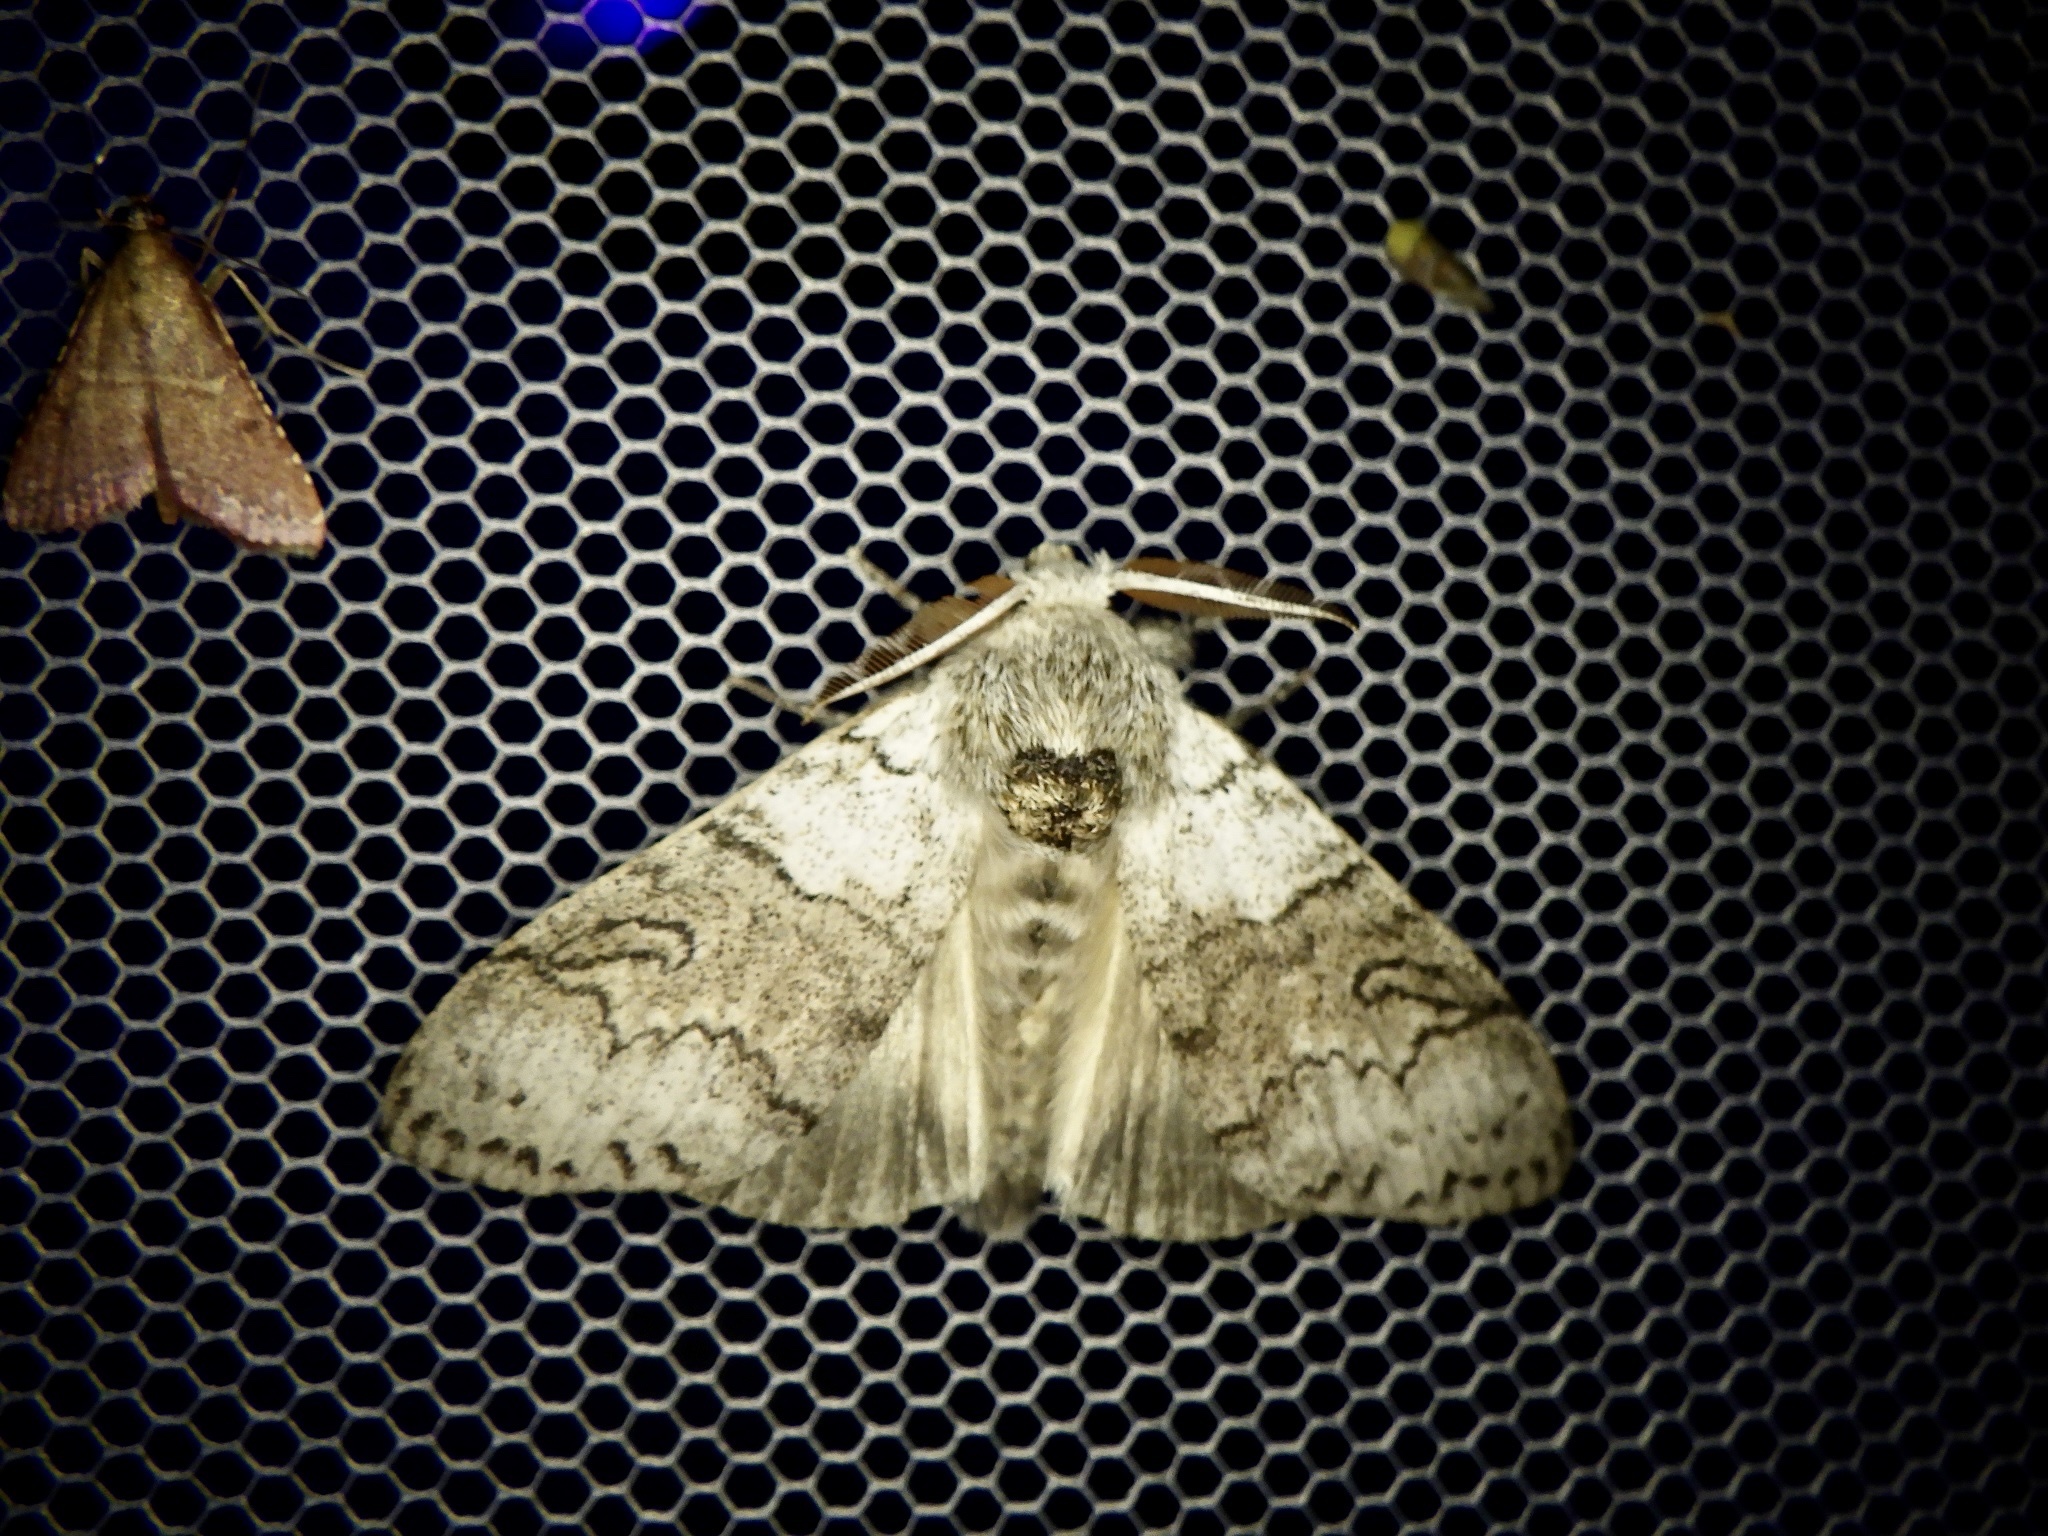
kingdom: Animalia
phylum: Arthropoda
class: Insecta
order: Lepidoptera
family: Erebidae
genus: Calliteara
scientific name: Calliteara
